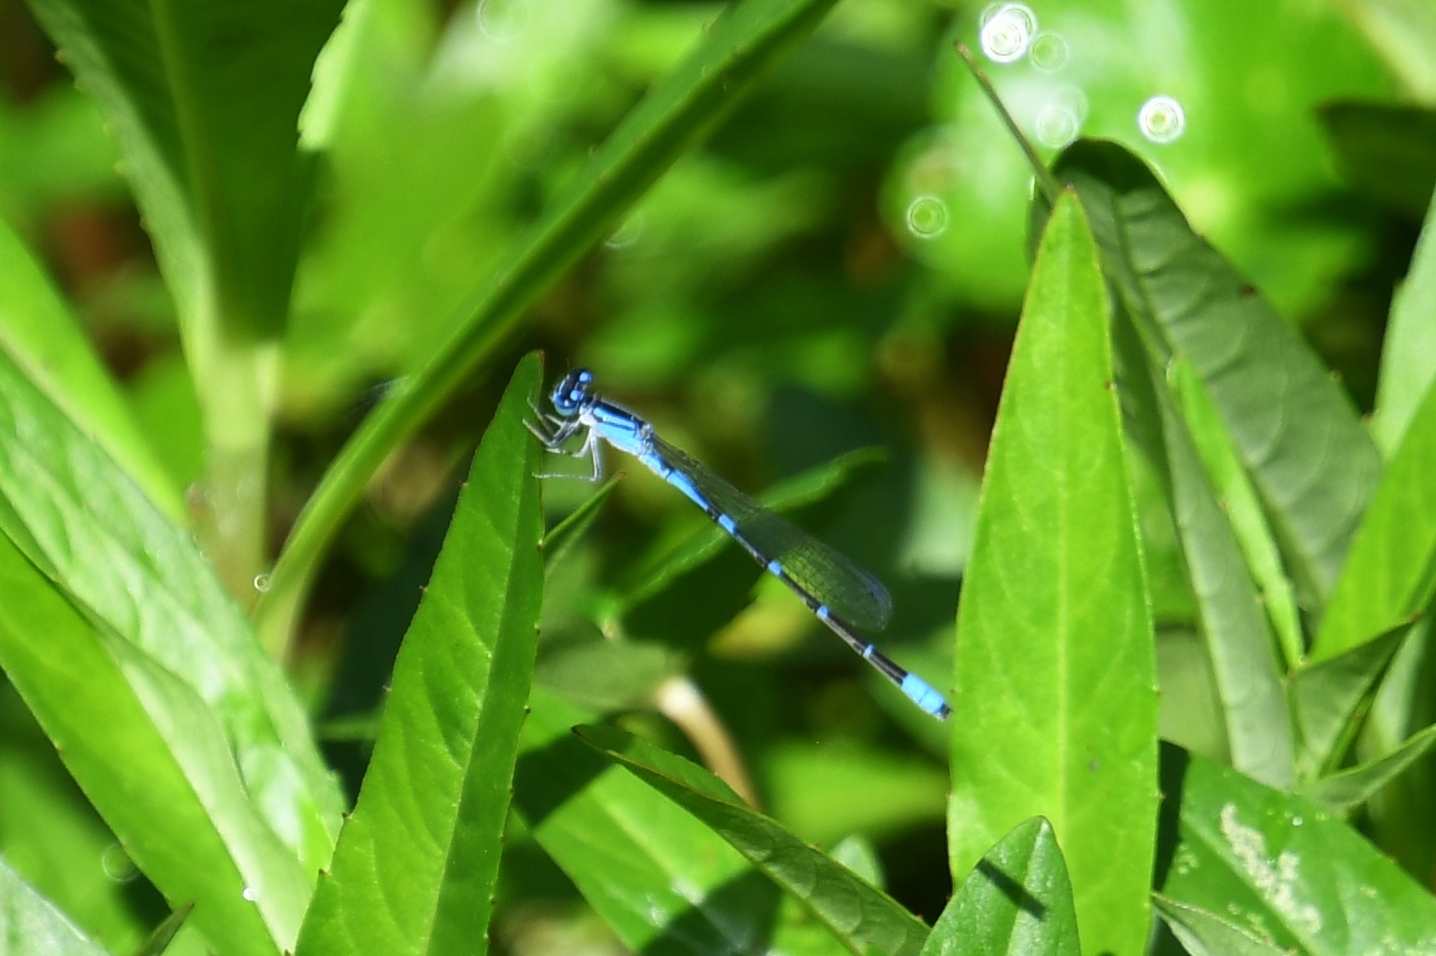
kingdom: Animalia
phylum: Arthropoda
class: Insecta
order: Odonata
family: Coenagrionidae
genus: Enallagma
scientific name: Enallagma praevarum
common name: Arroyo bluet
